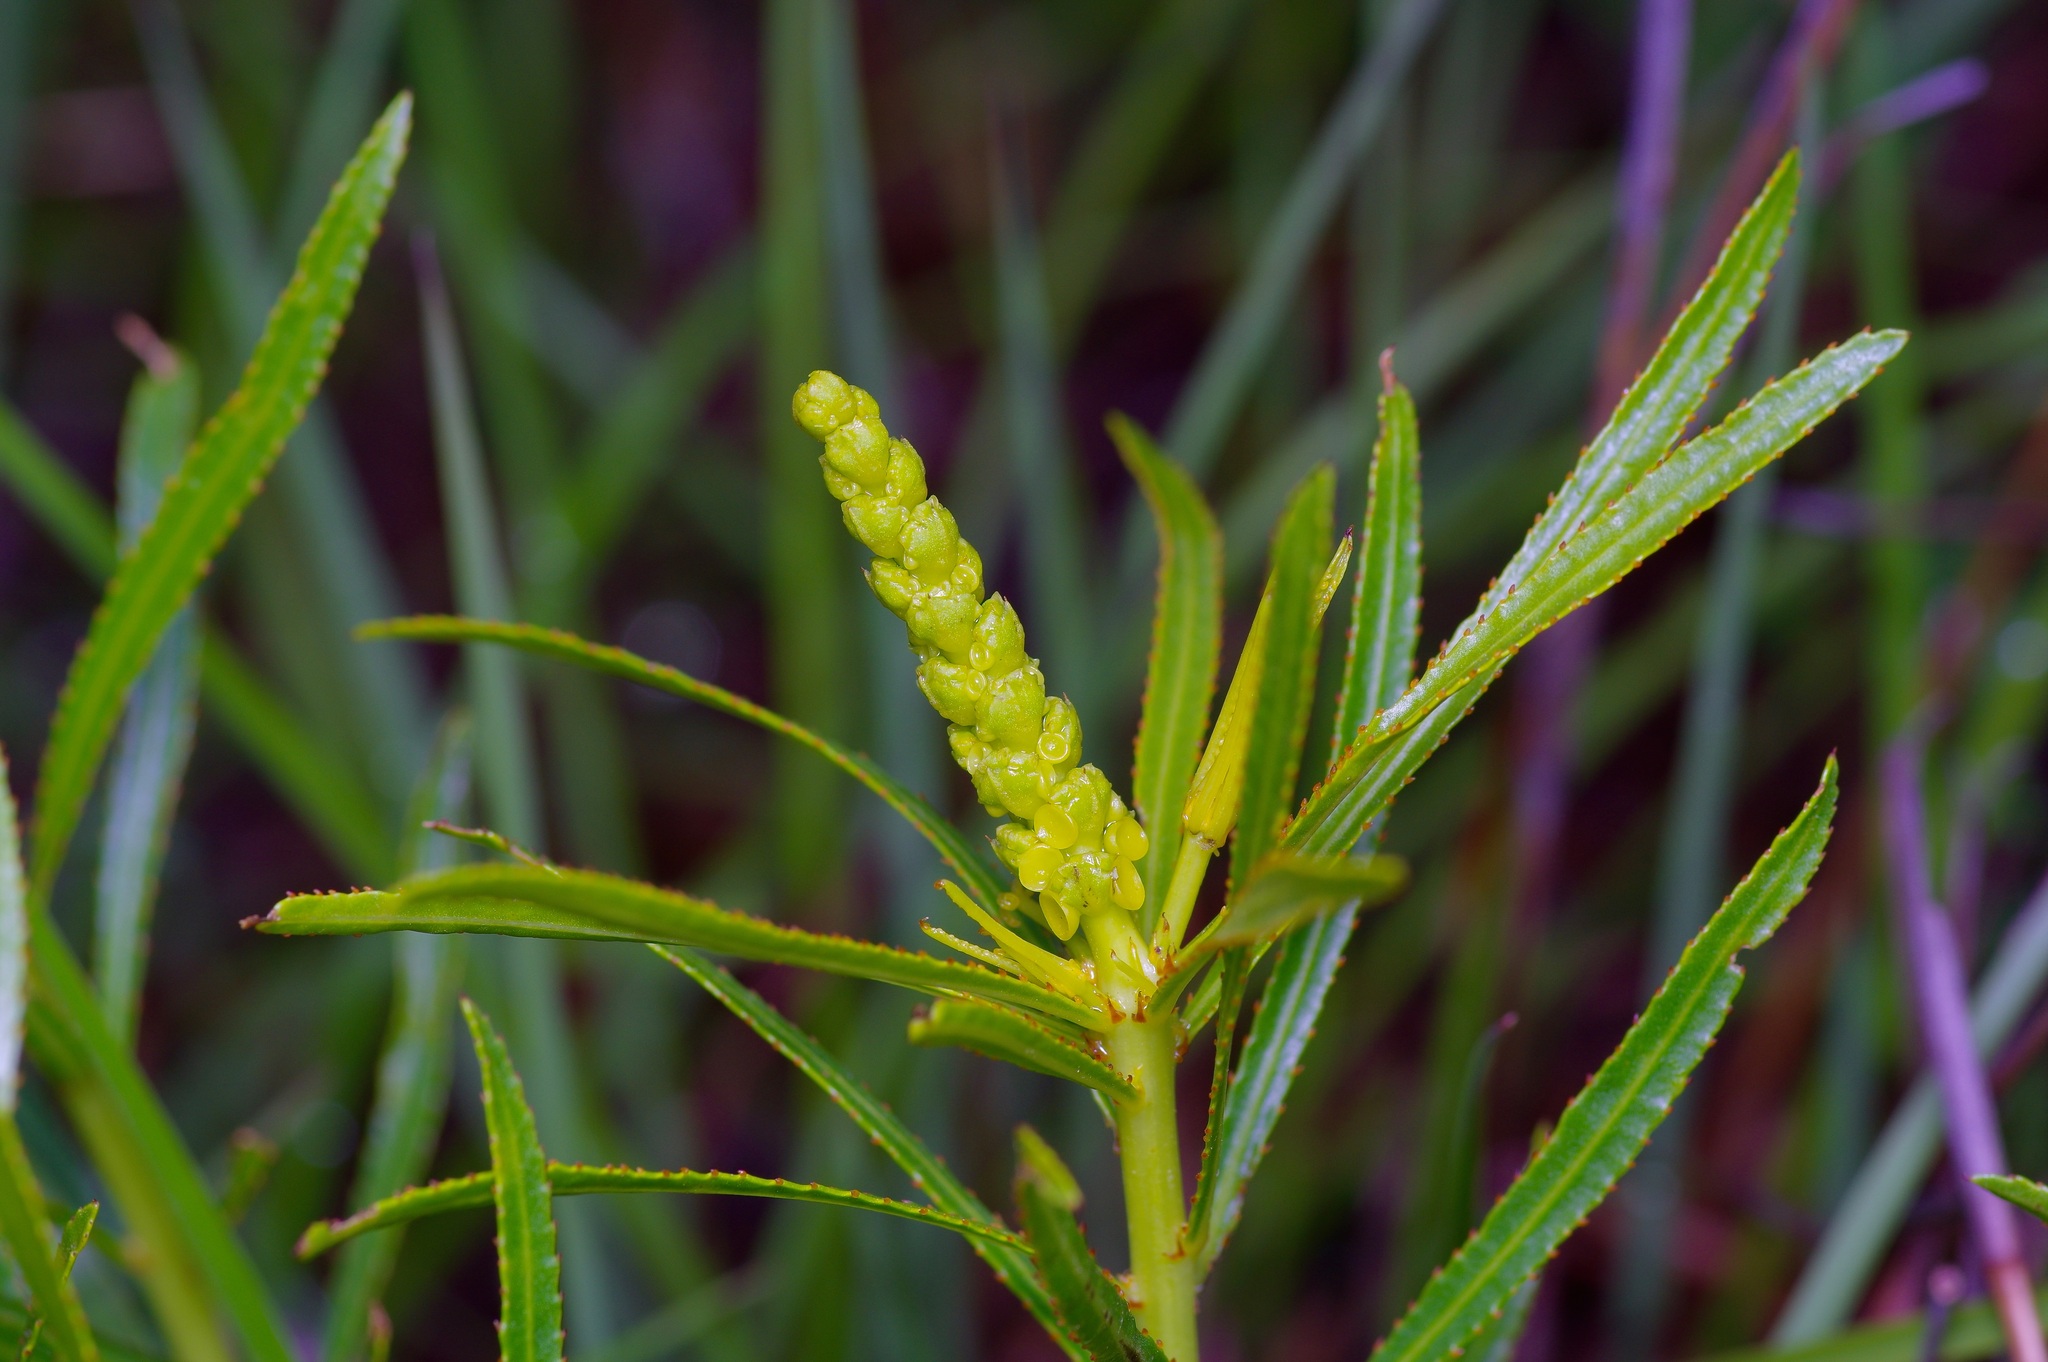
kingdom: Plantae
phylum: Tracheophyta
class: Magnoliopsida
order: Malpighiales
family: Euphorbiaceae
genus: Stillingia
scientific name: Stillingia texana
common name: Texas stillingia
